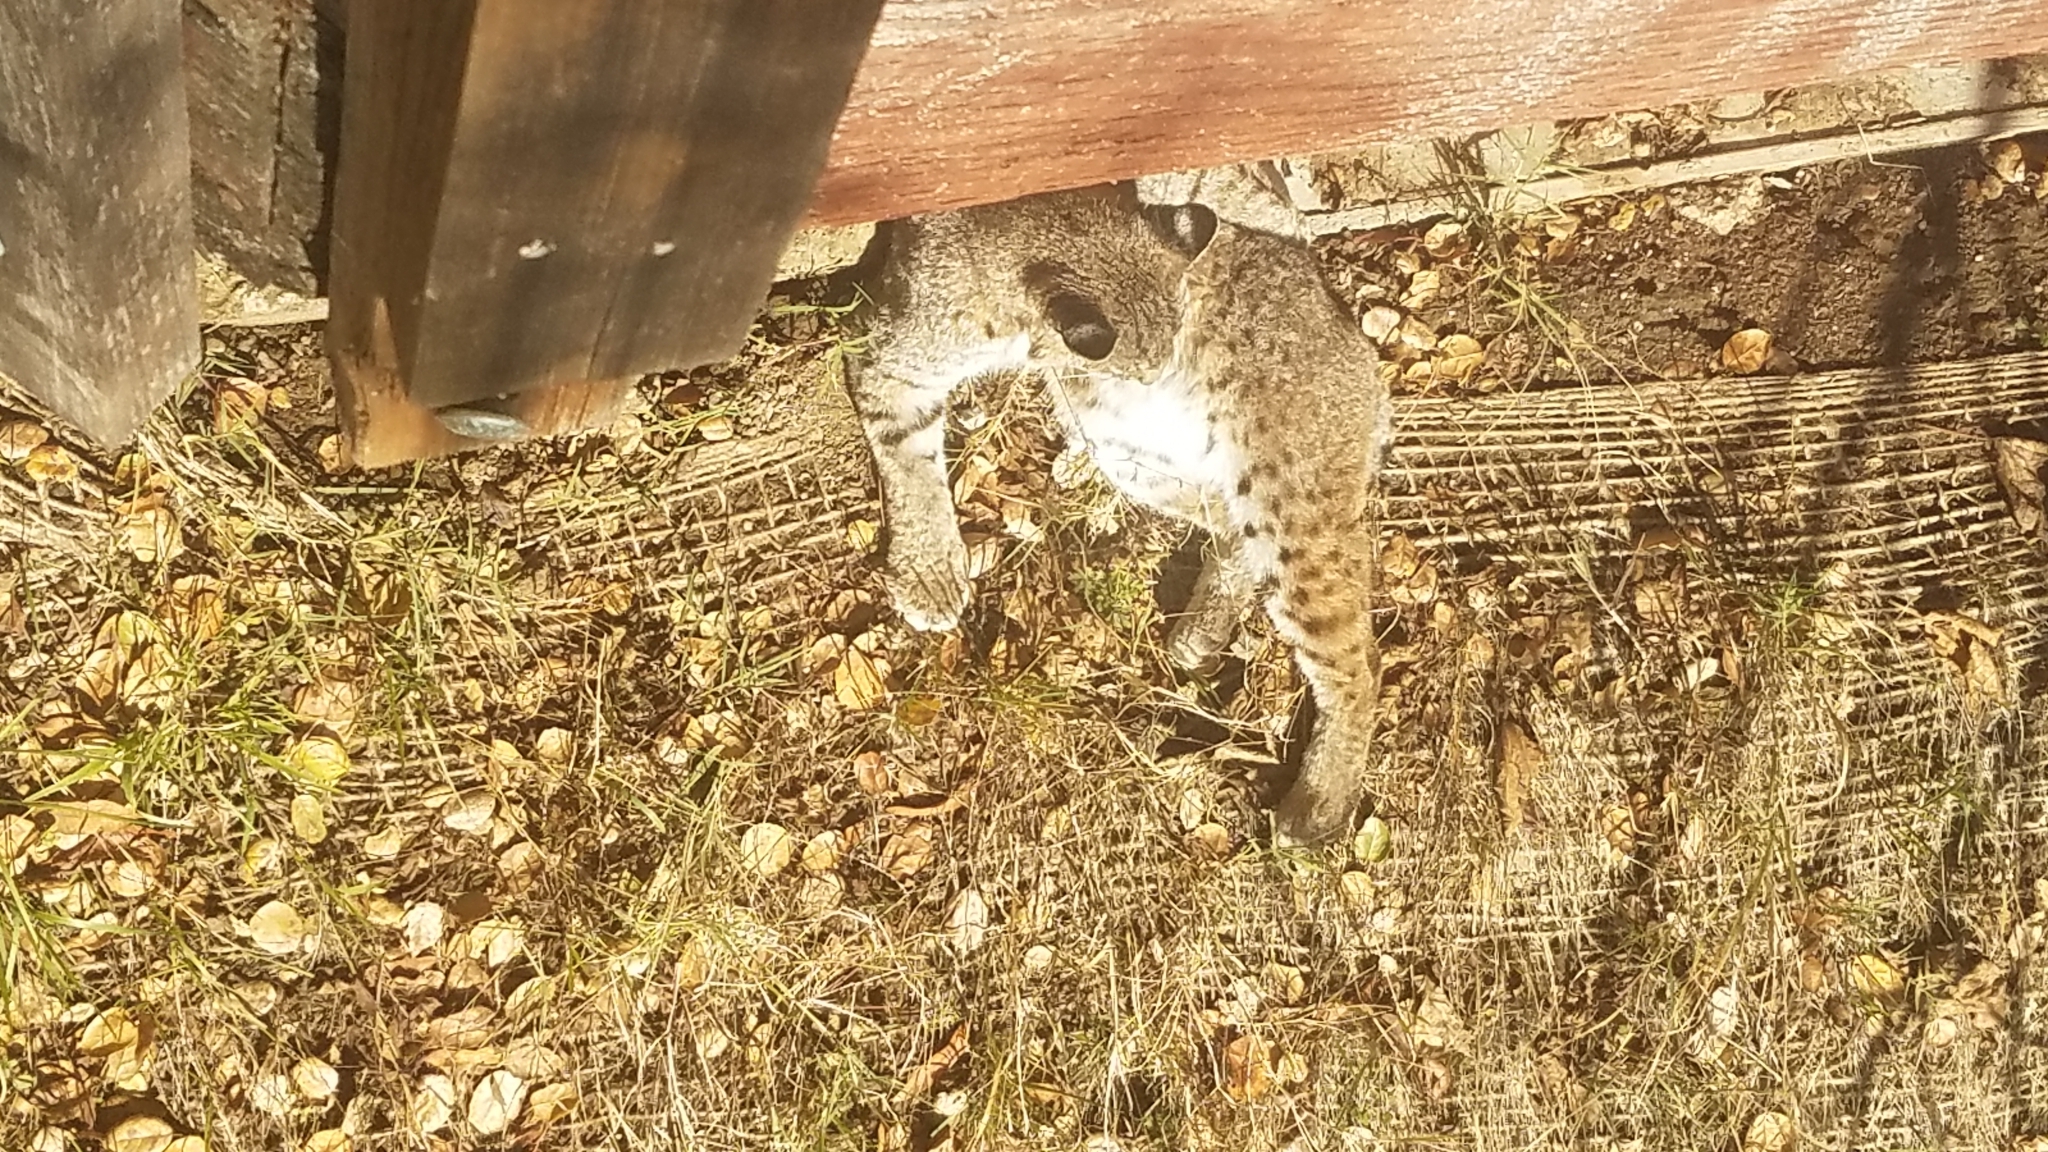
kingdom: Animalia
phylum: Chordata
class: Mammalia
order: Carnivora
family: Felidae
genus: Lynx
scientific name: Lynx rufus
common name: Bobcat
